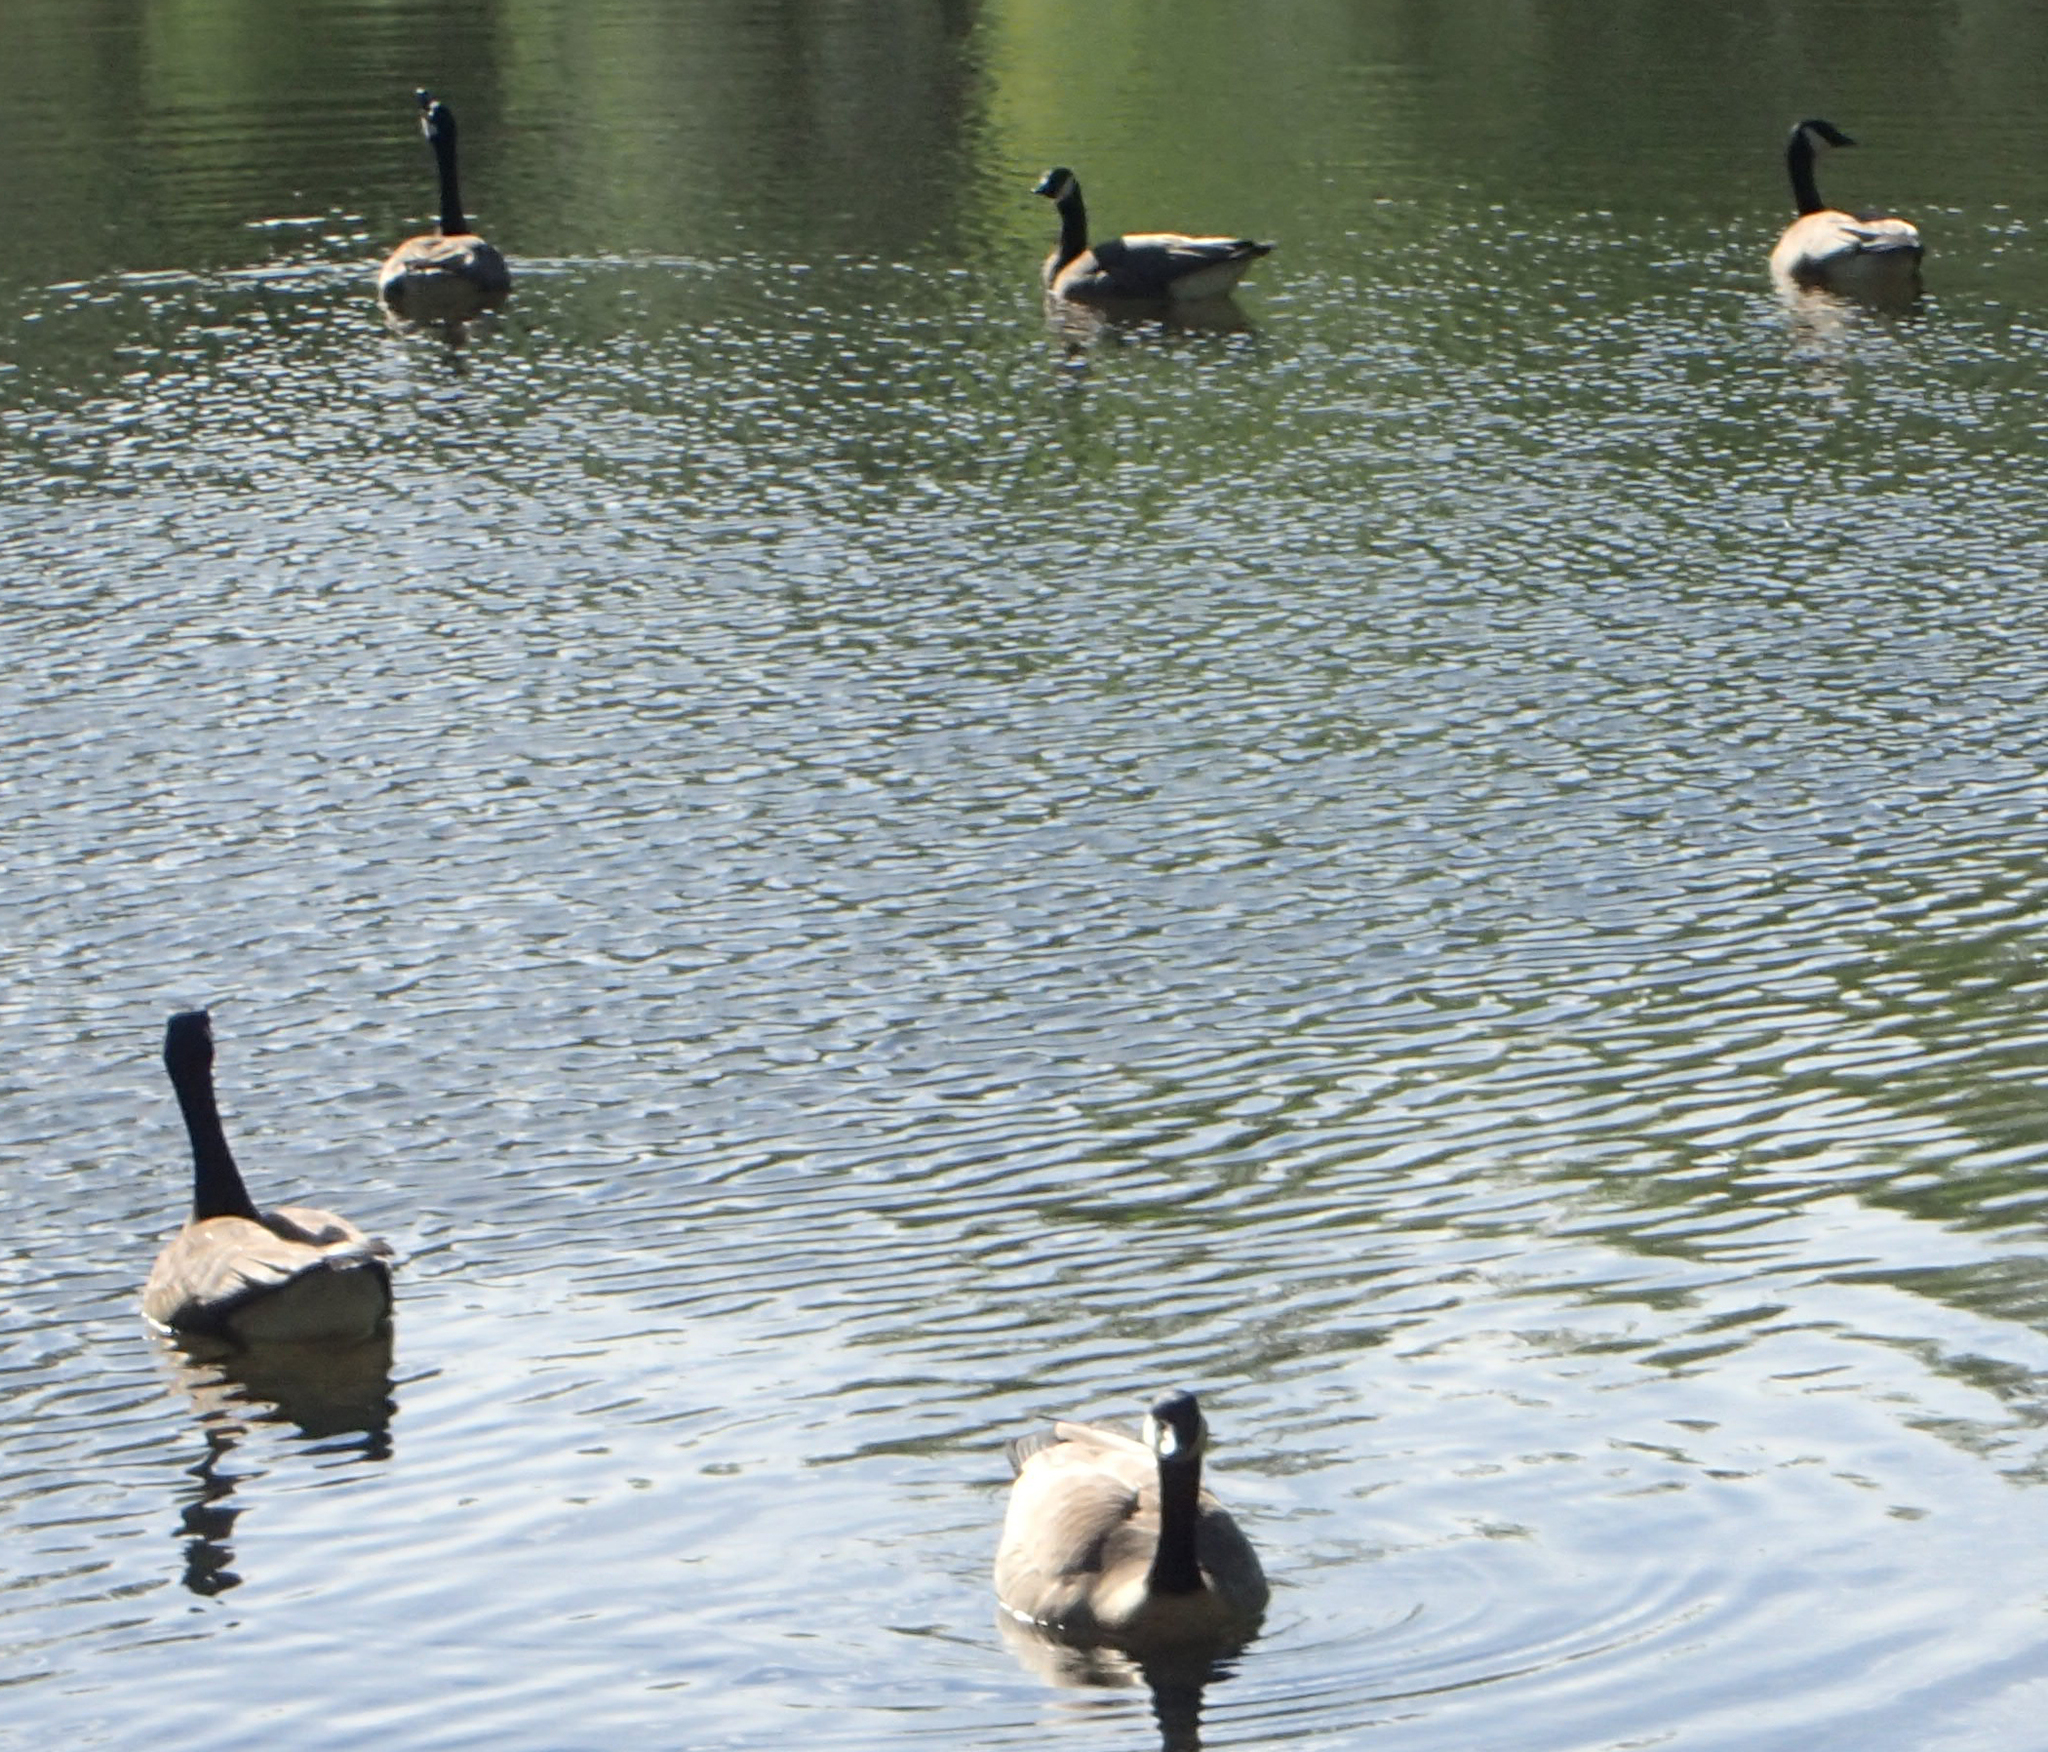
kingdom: Animalia
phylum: Chordata
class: Aves
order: Anseriformes
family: Anatidae
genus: Branta
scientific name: Branta canadensis
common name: Canada goose
